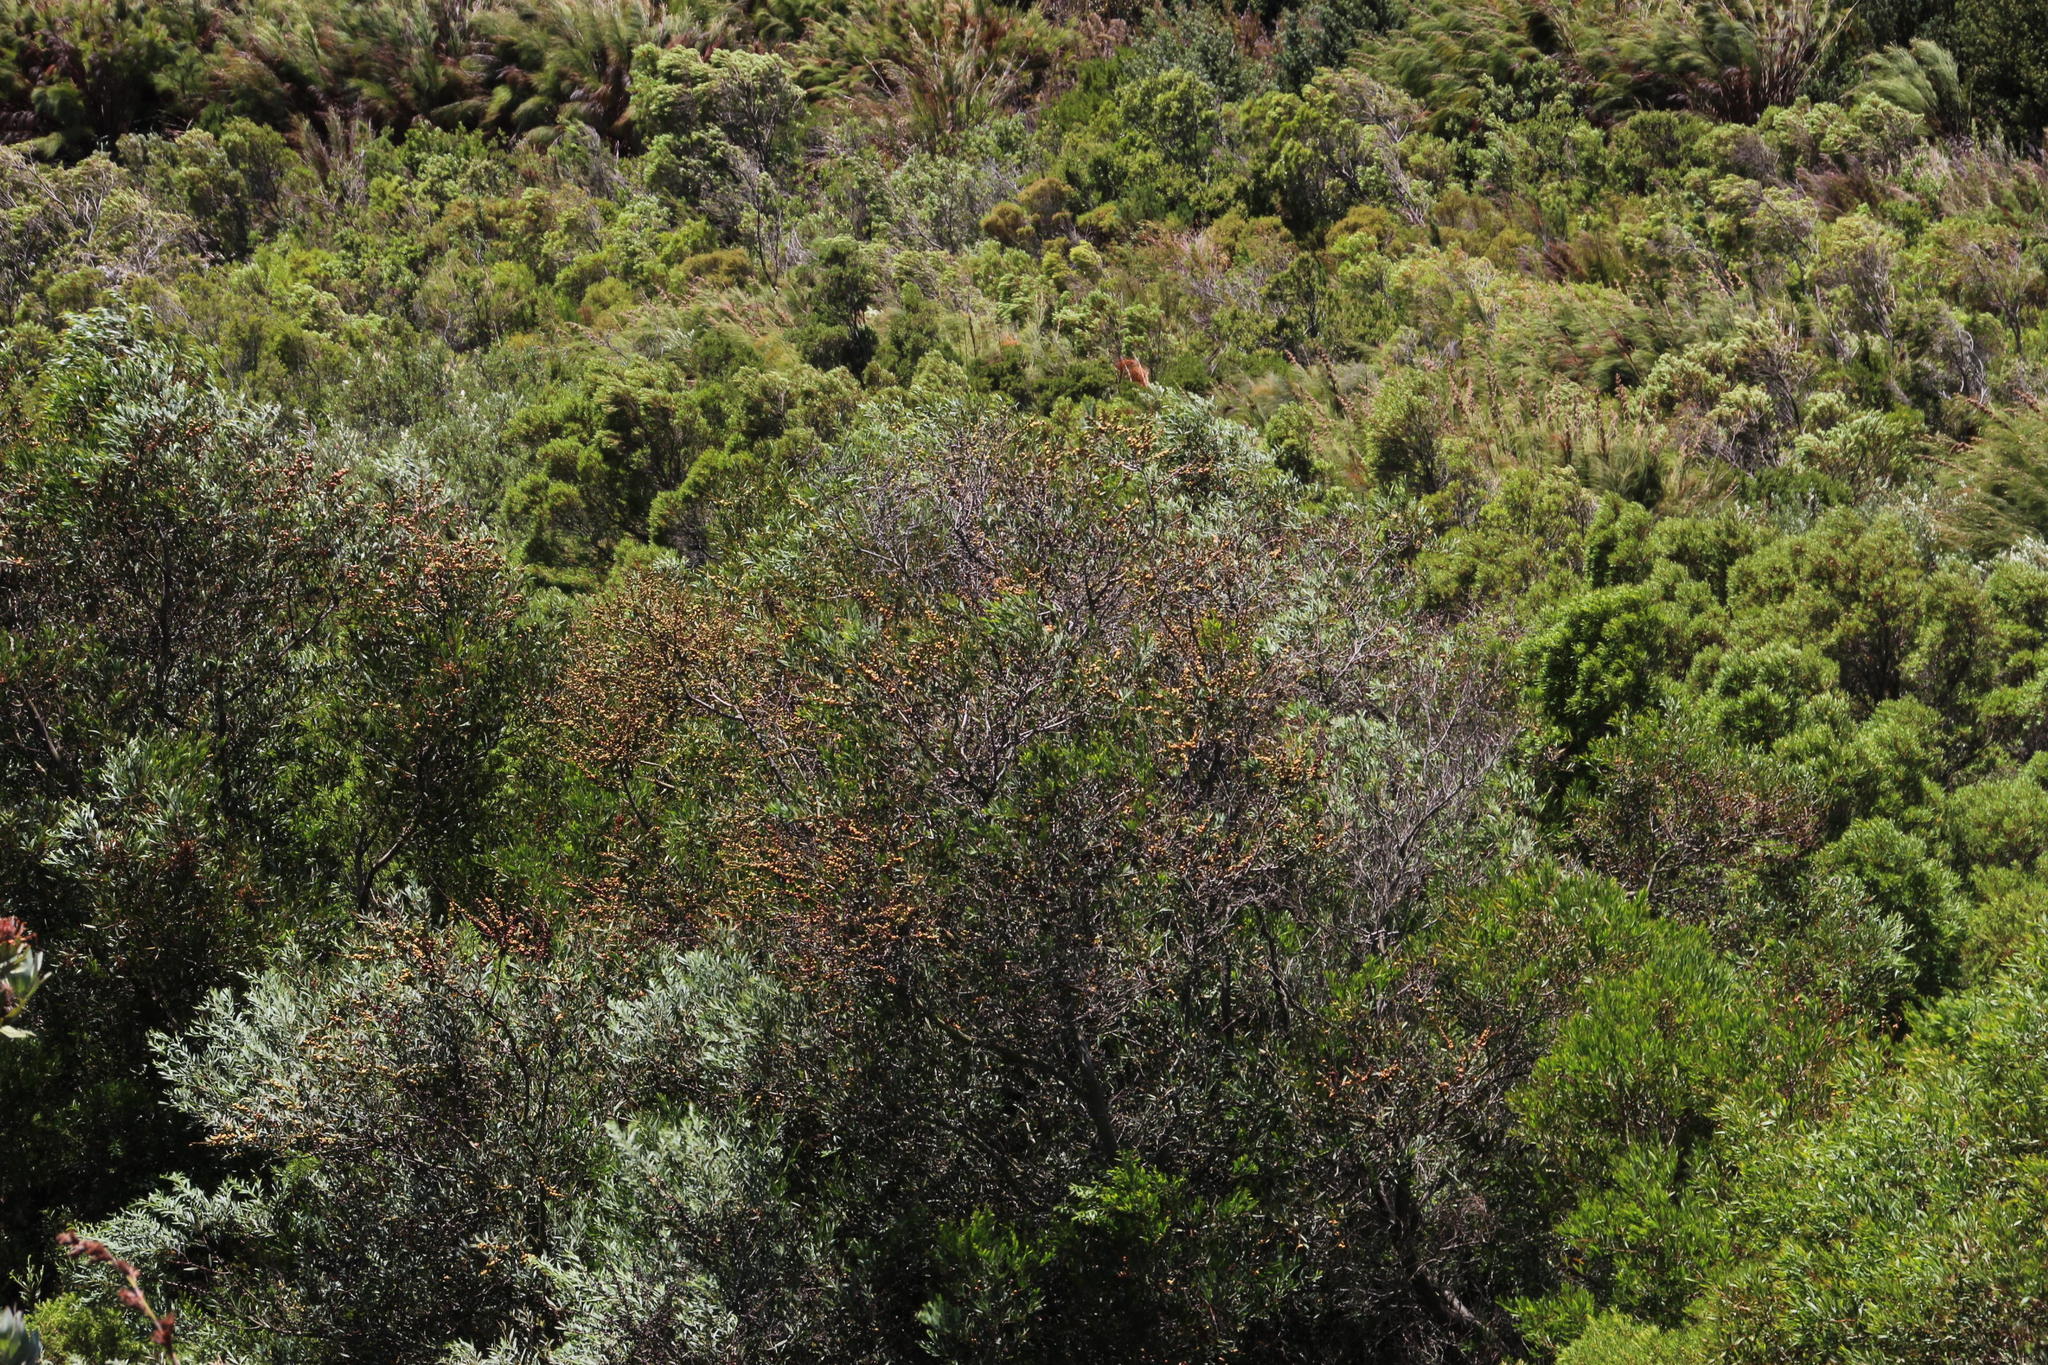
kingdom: Plantae
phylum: Tracheophyta
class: Magnoliopsida
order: Fabales
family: Fabaceae
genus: Acacia
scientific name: Acacia longifolia
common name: Sydney golden wattle
